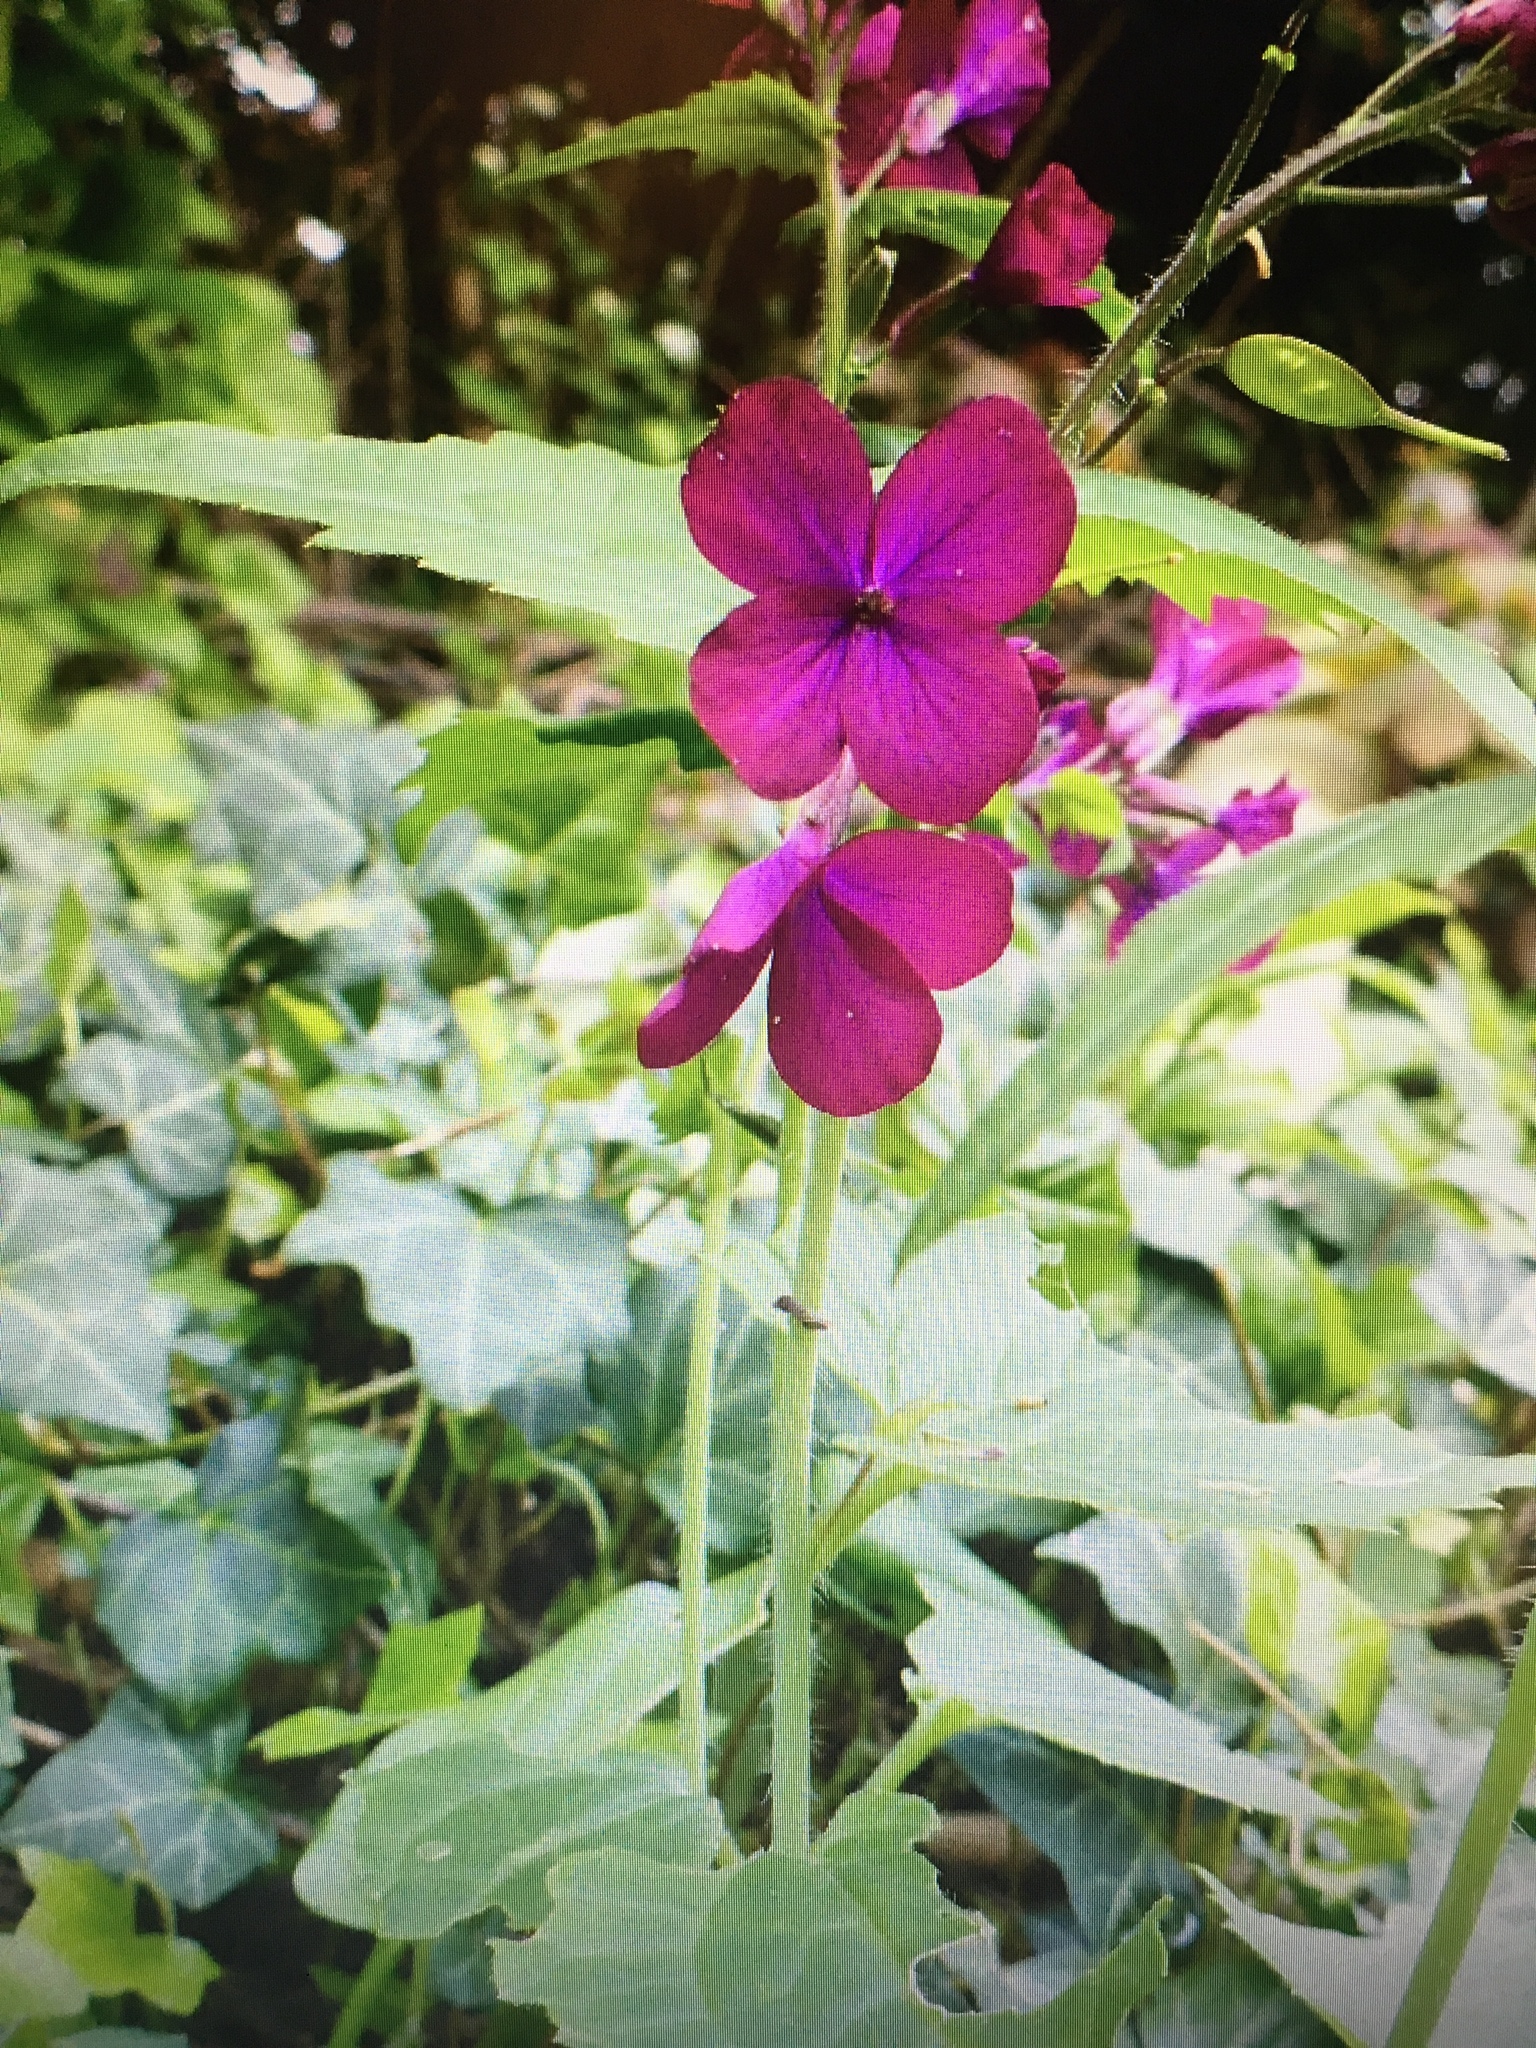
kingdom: Plantae
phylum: Tracheophyta
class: Magnoliopsida
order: Brassicales
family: Brassicaceae
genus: Lunaria
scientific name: Lunaria annua
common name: Honesty
